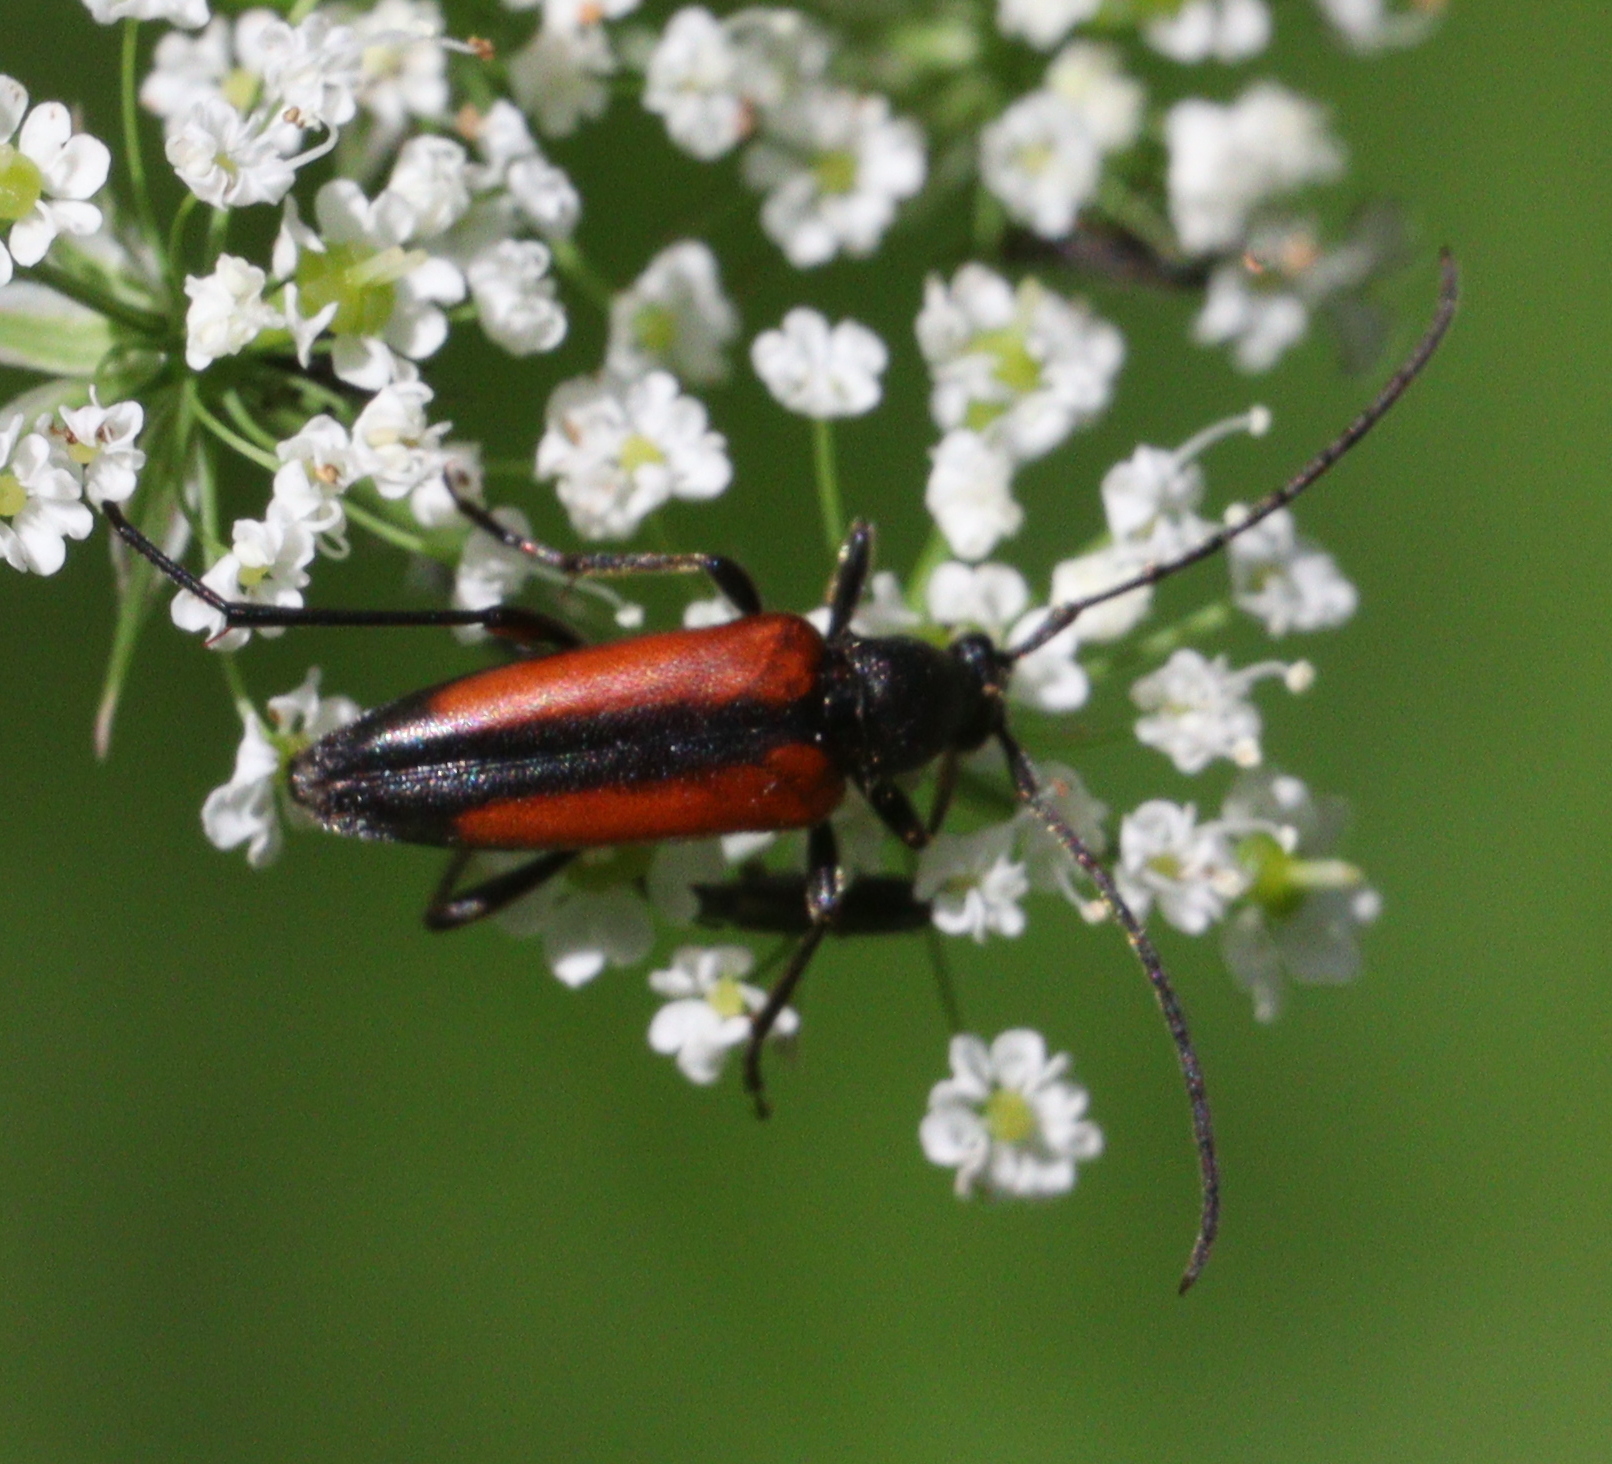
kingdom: Animalia
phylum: Arthropoda
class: Insecta
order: Coleoptera
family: Cerambycidae
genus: Stenurella
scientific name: Stenurella melanura
